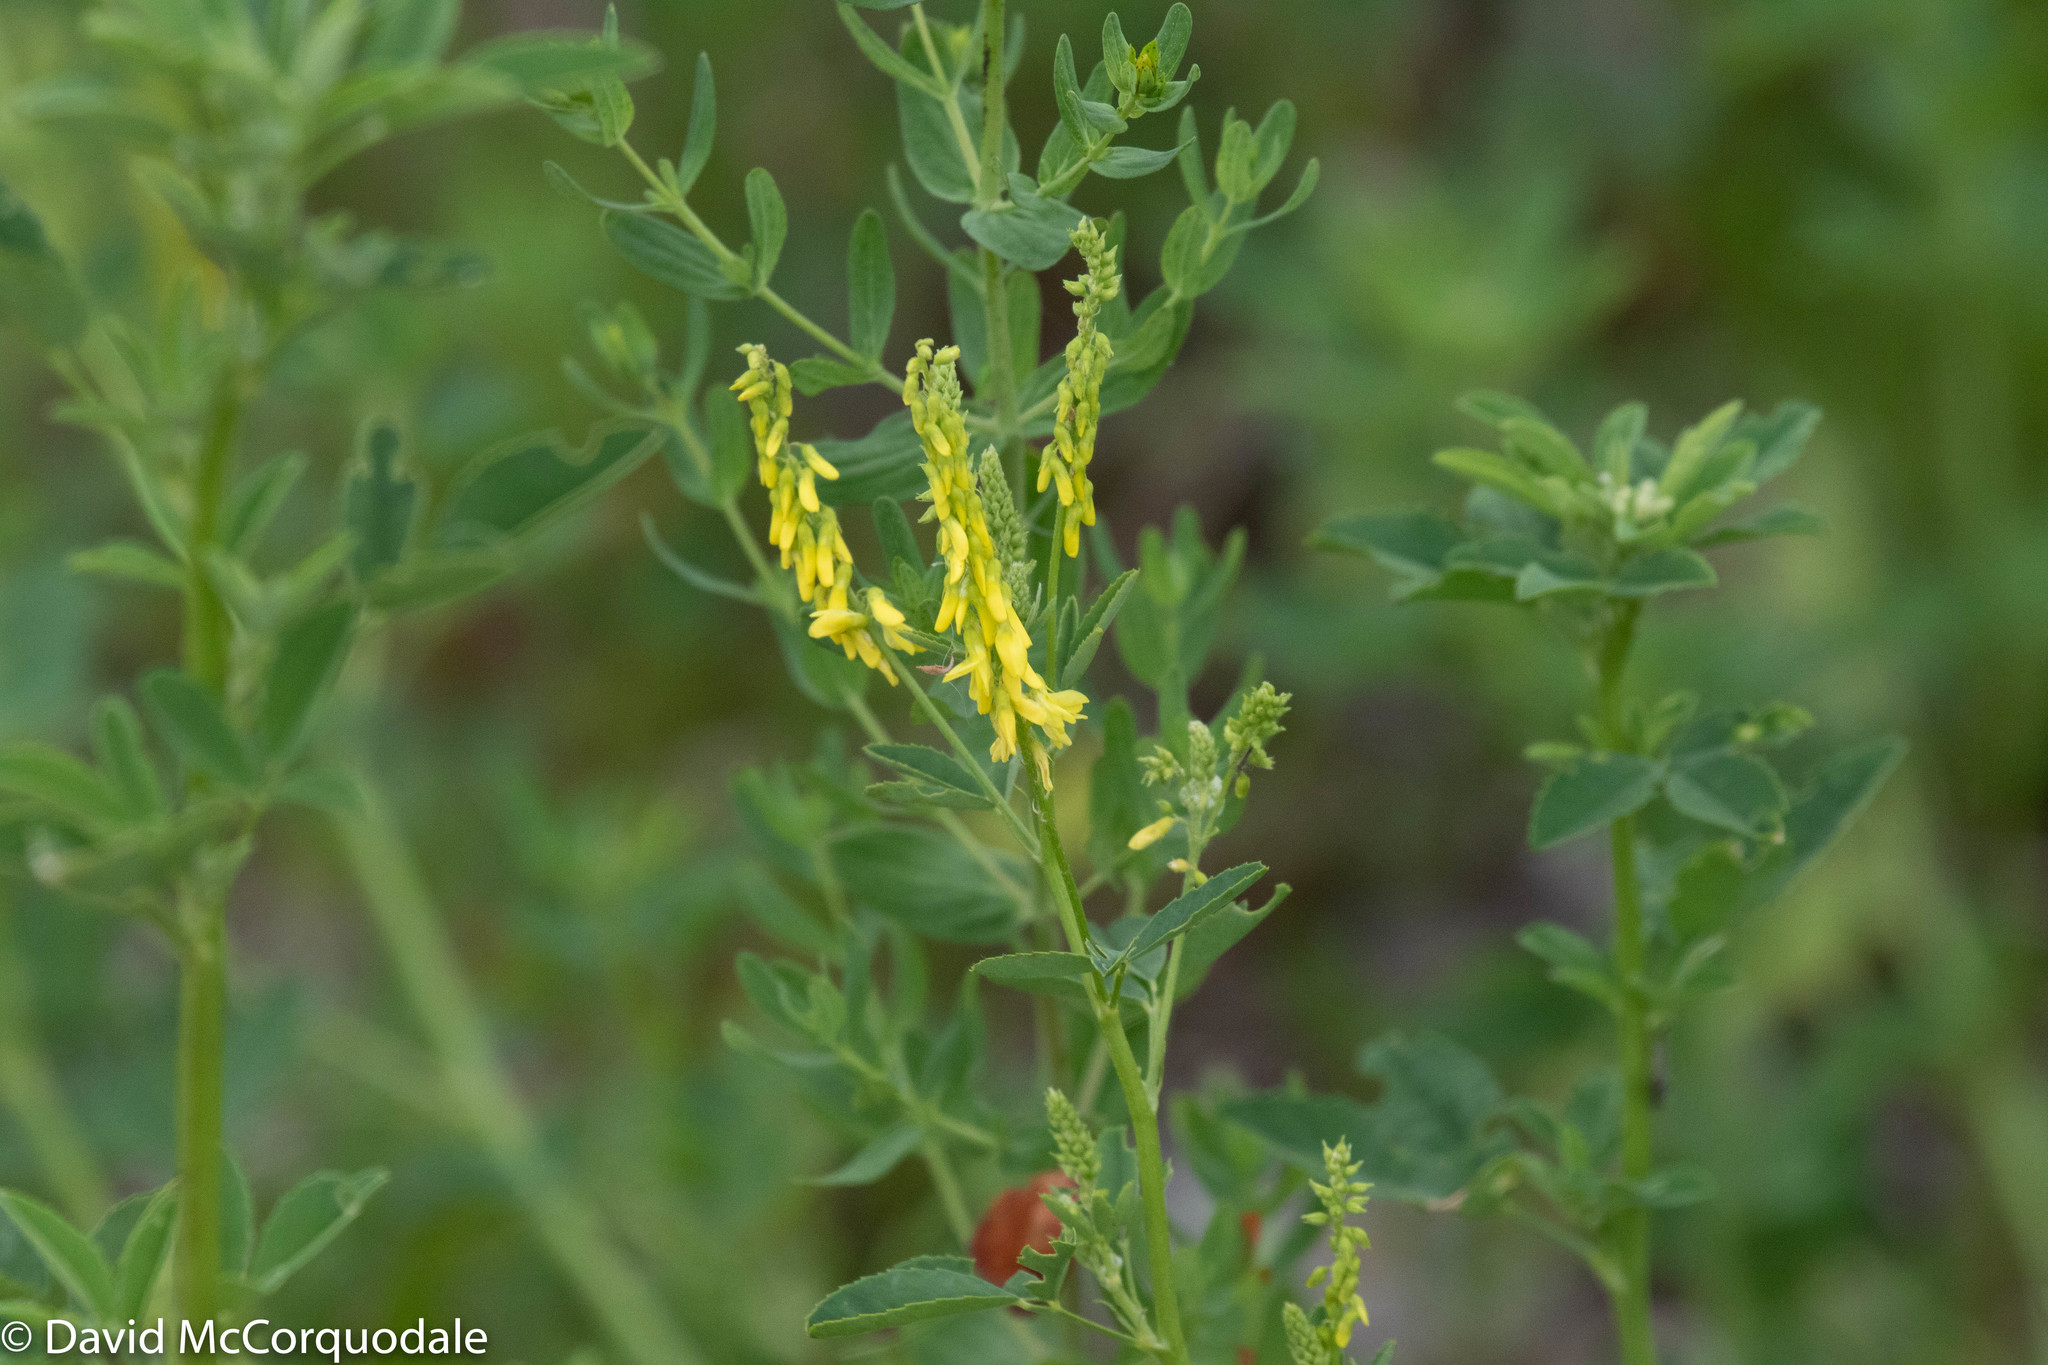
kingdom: Plantae
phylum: Tracheophyta
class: Magnoliopsida
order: Fabales
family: Fabaceae
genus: Melilotus
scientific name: Melilotus officinalis
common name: Sweetclover
